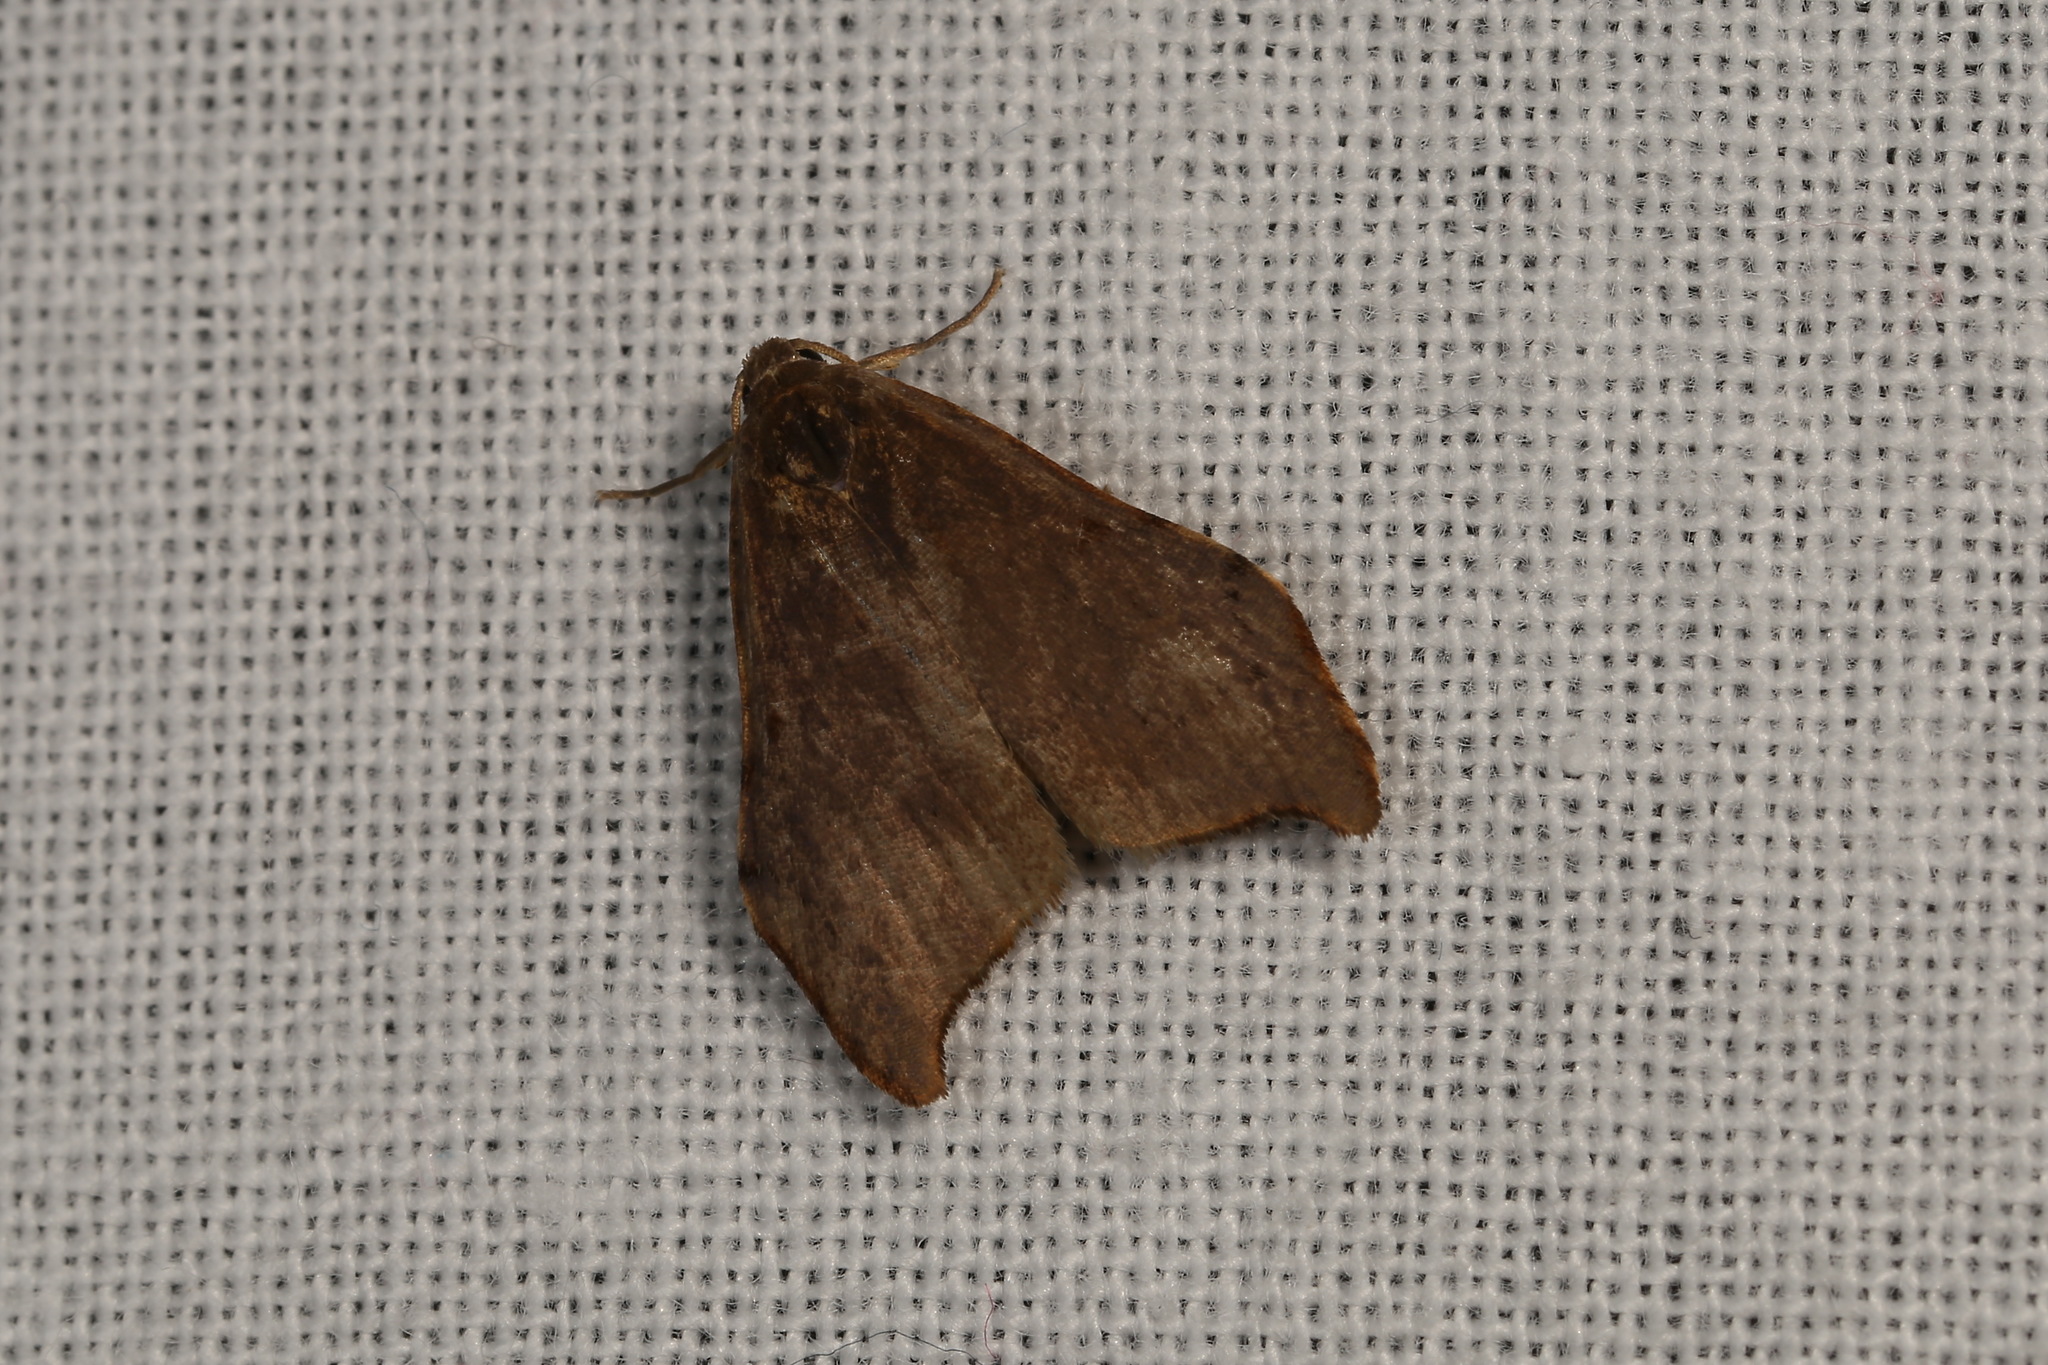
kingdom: Animalia
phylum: Arthropoda
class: Insecta
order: Lepidoptera
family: Erebidae
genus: Macaduma
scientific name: Macaduma strongyla
